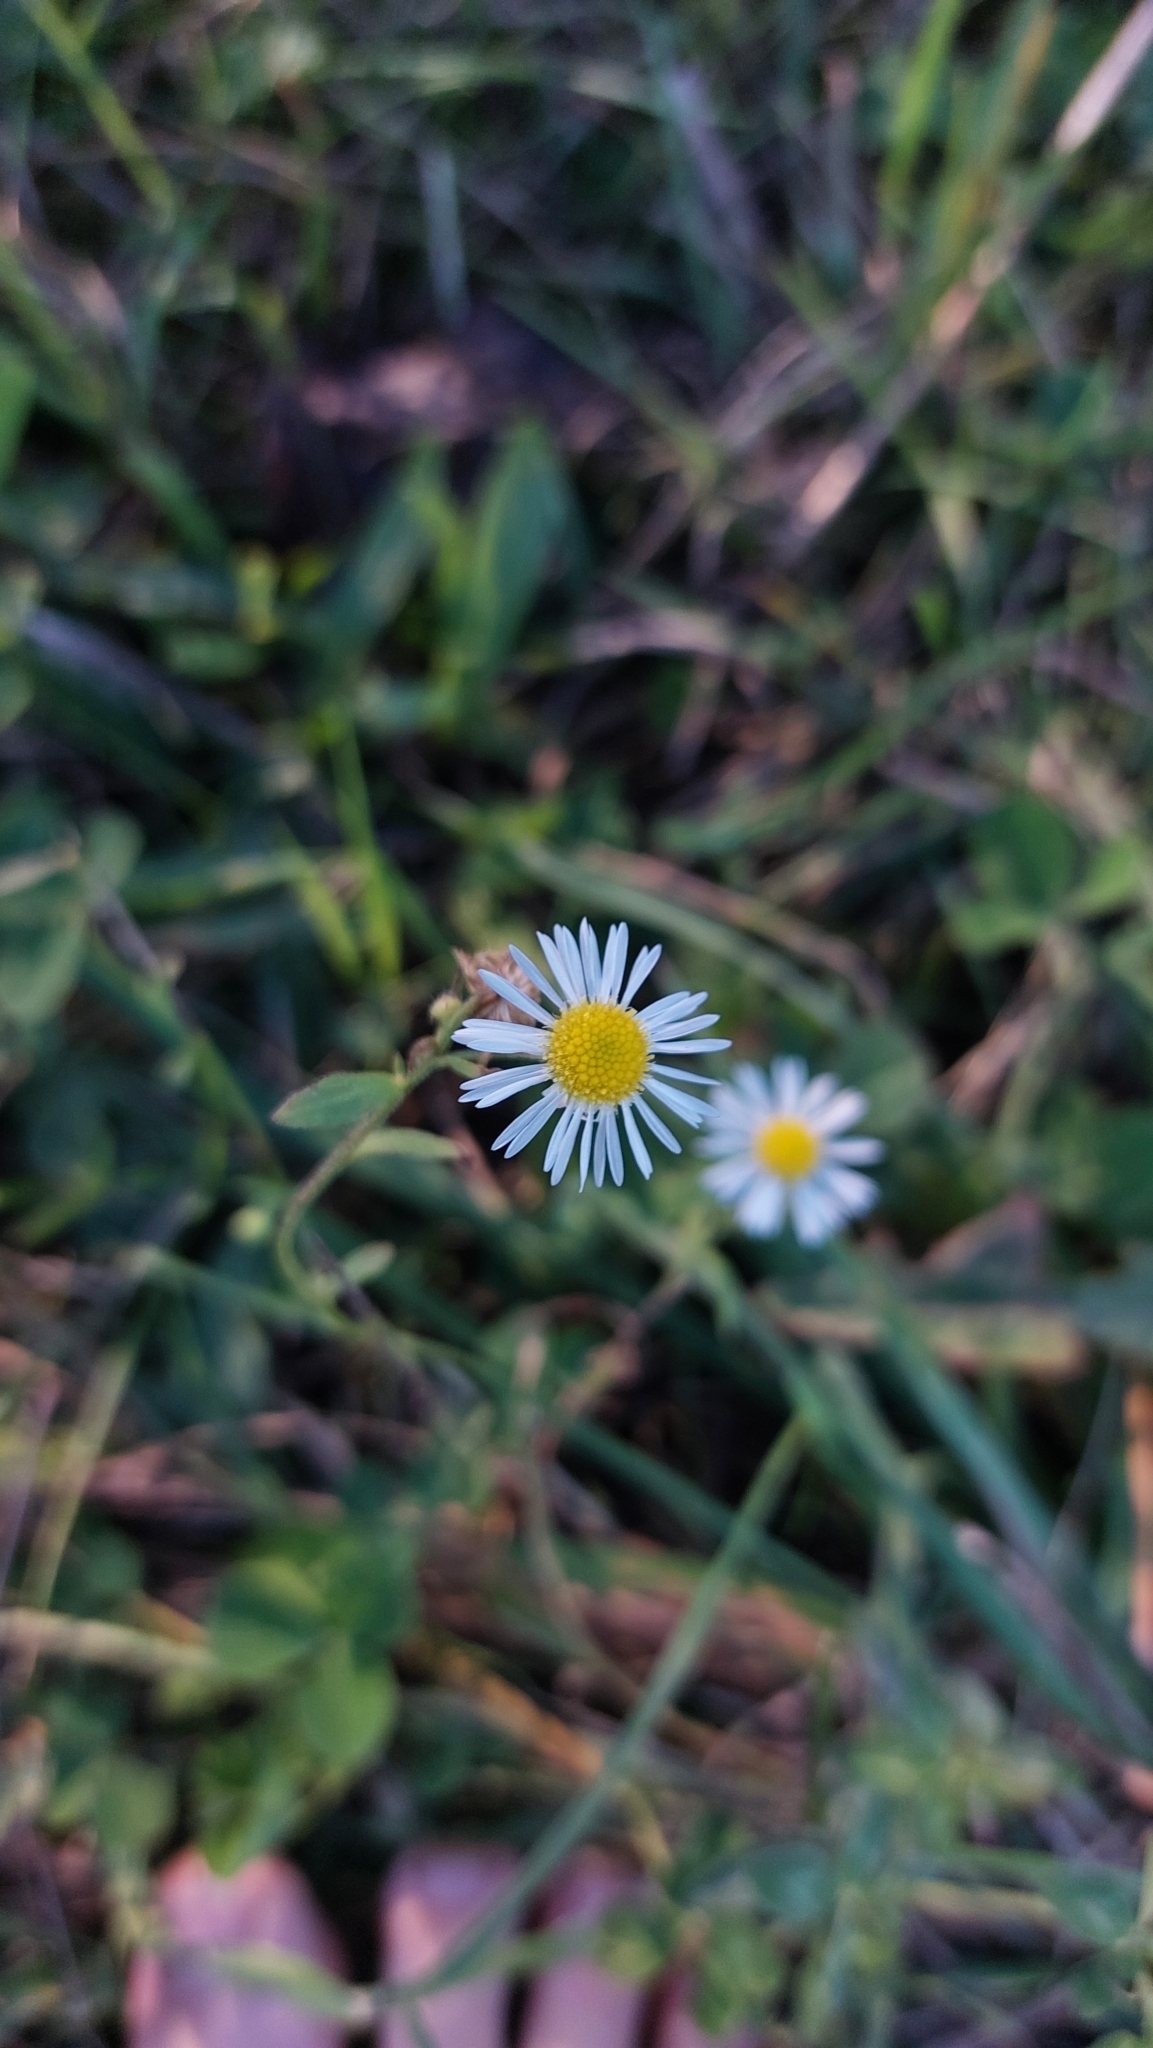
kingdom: Plantae
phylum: Tracheophyta
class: Magnoliopsida
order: Asterales
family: Asteraceae
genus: Erigeron
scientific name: Erigeron annuus
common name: Tall fleabane
